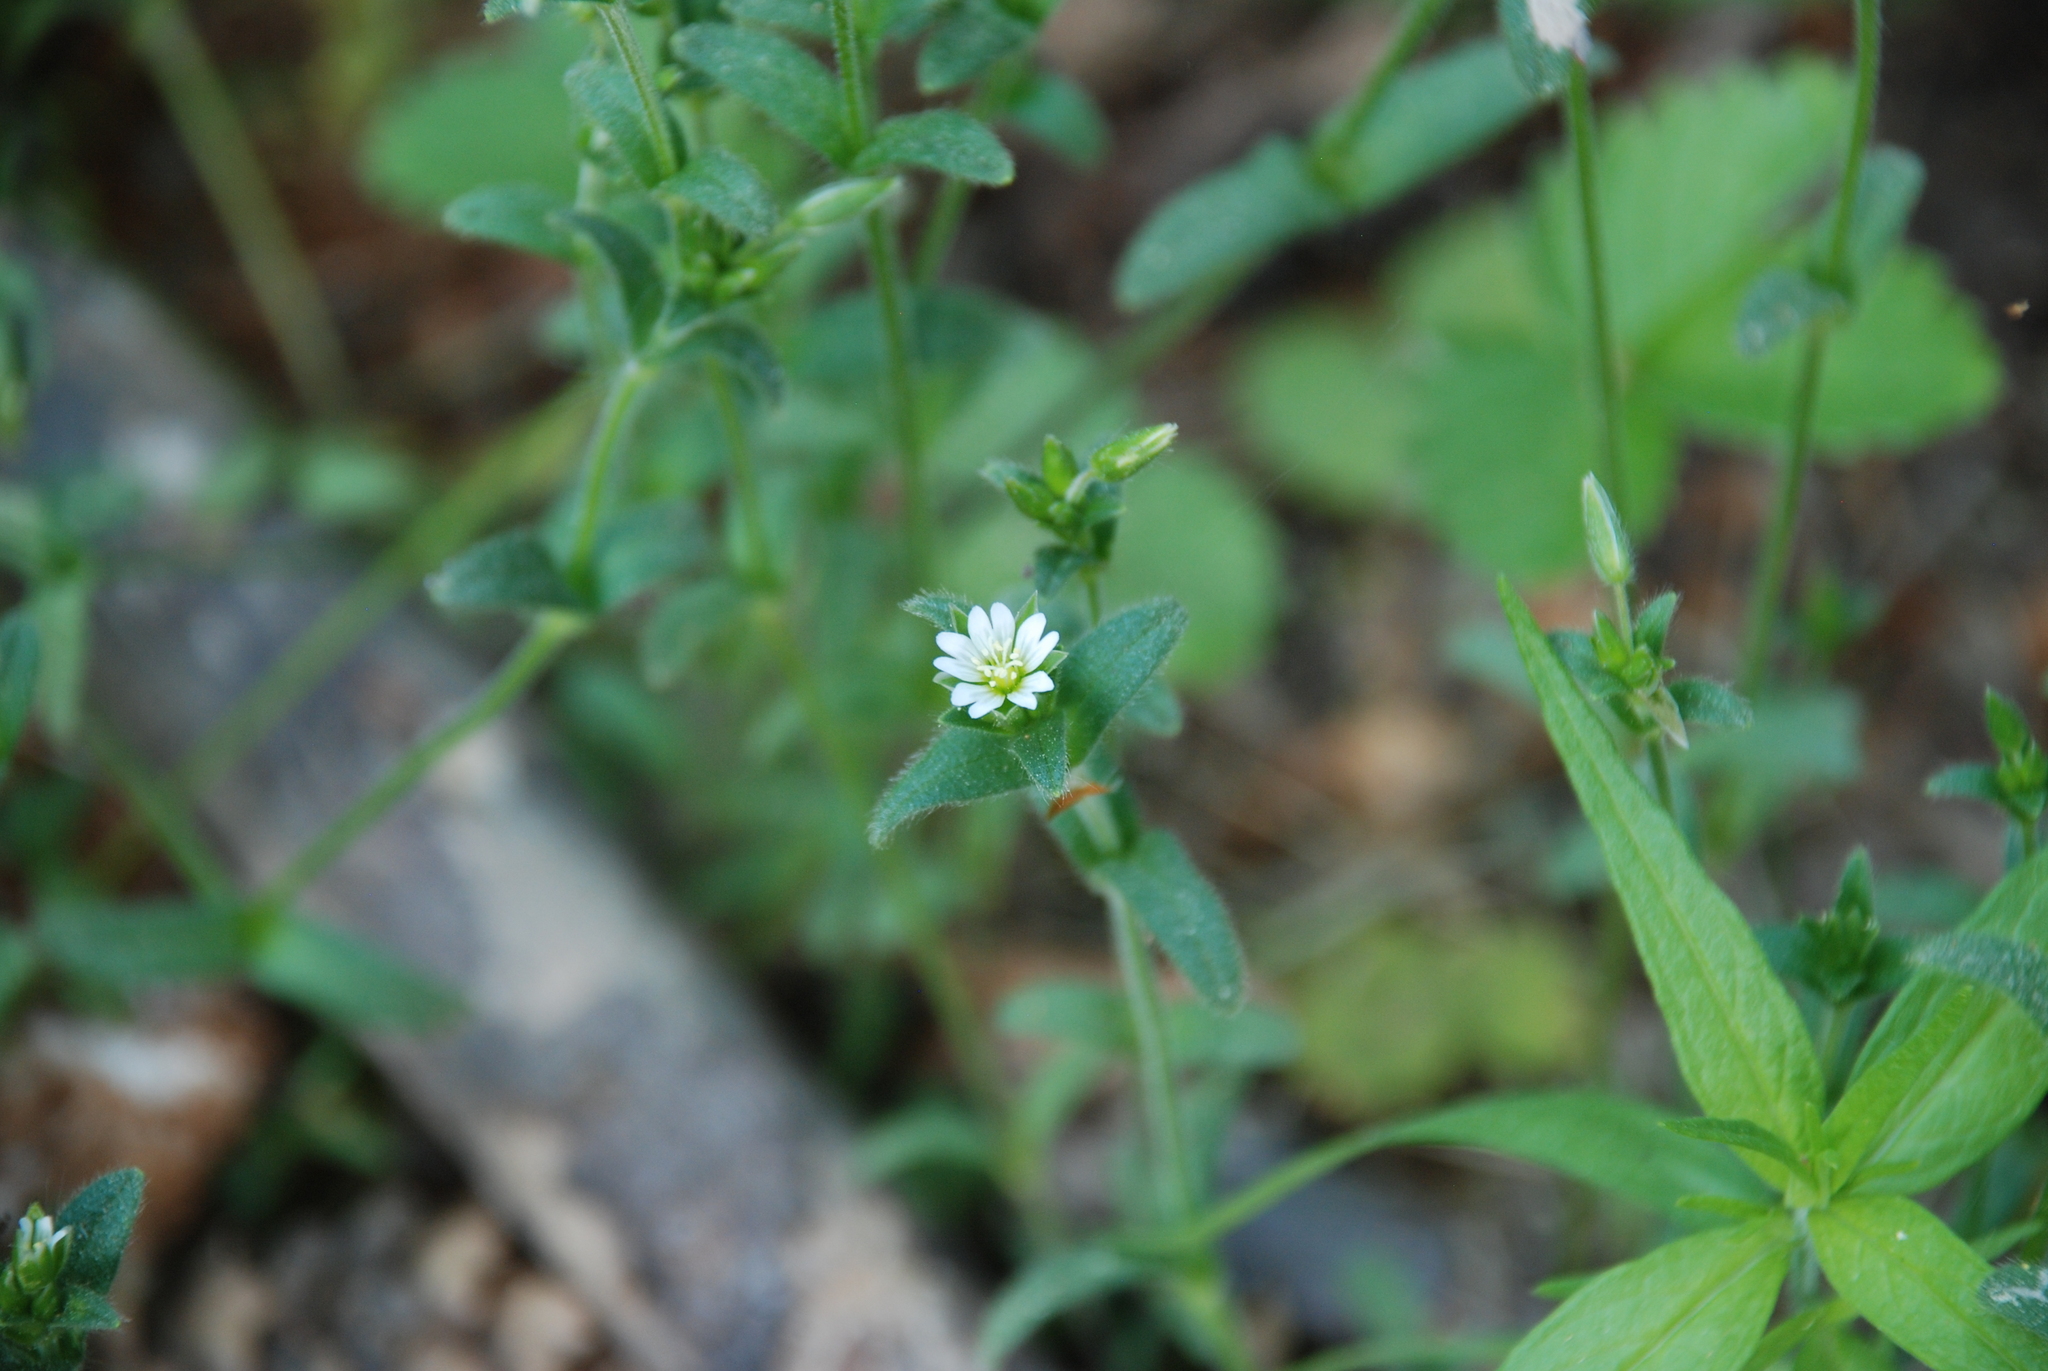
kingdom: Plantae
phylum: Tracheophyta
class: Magnoliopsida
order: Caryophyllales
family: Caryophyllaceae
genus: Cerastium
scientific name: Cerastium holosteoides
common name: Big chickweed
